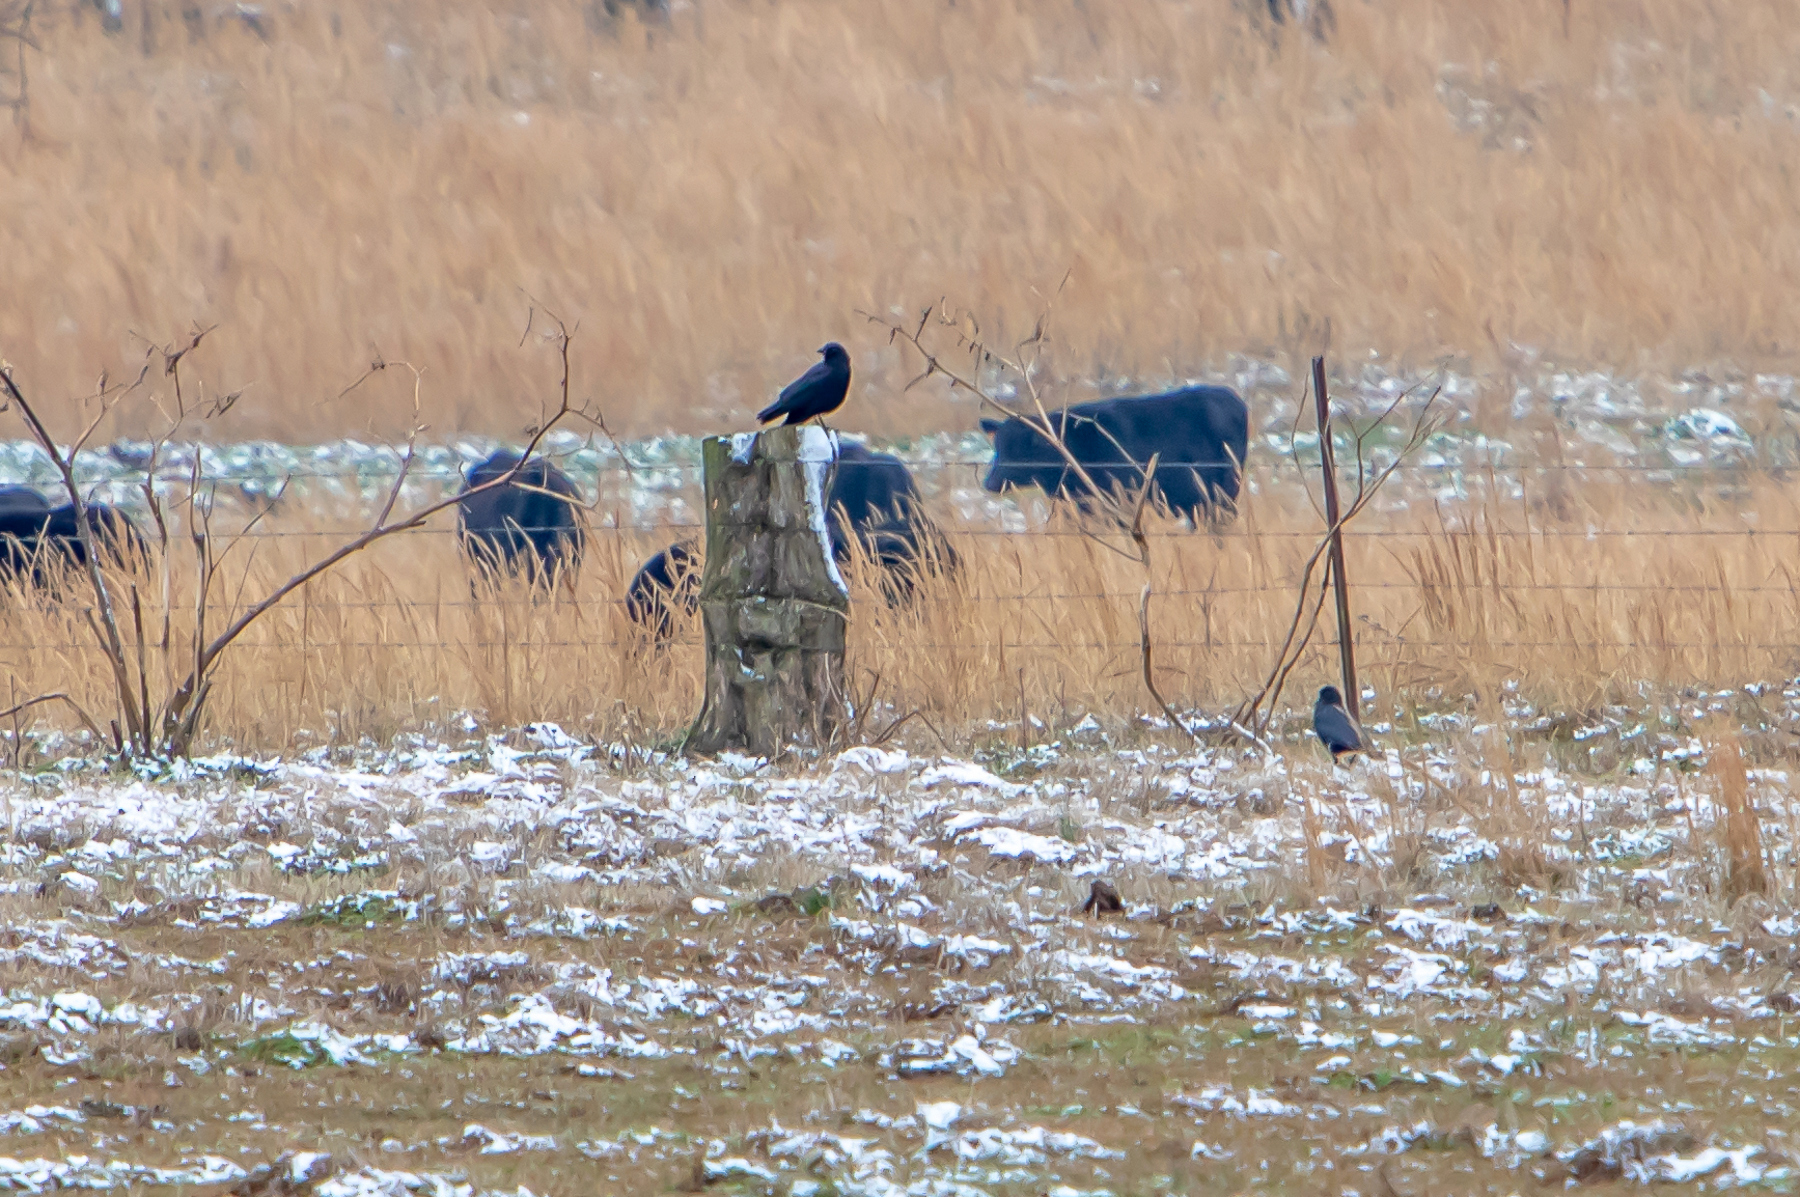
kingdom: Animalia
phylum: Chordata
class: Aves
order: Passeriformes
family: Corvidae
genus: Corvus
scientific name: Corvus brachyrhynchos
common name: American crow
